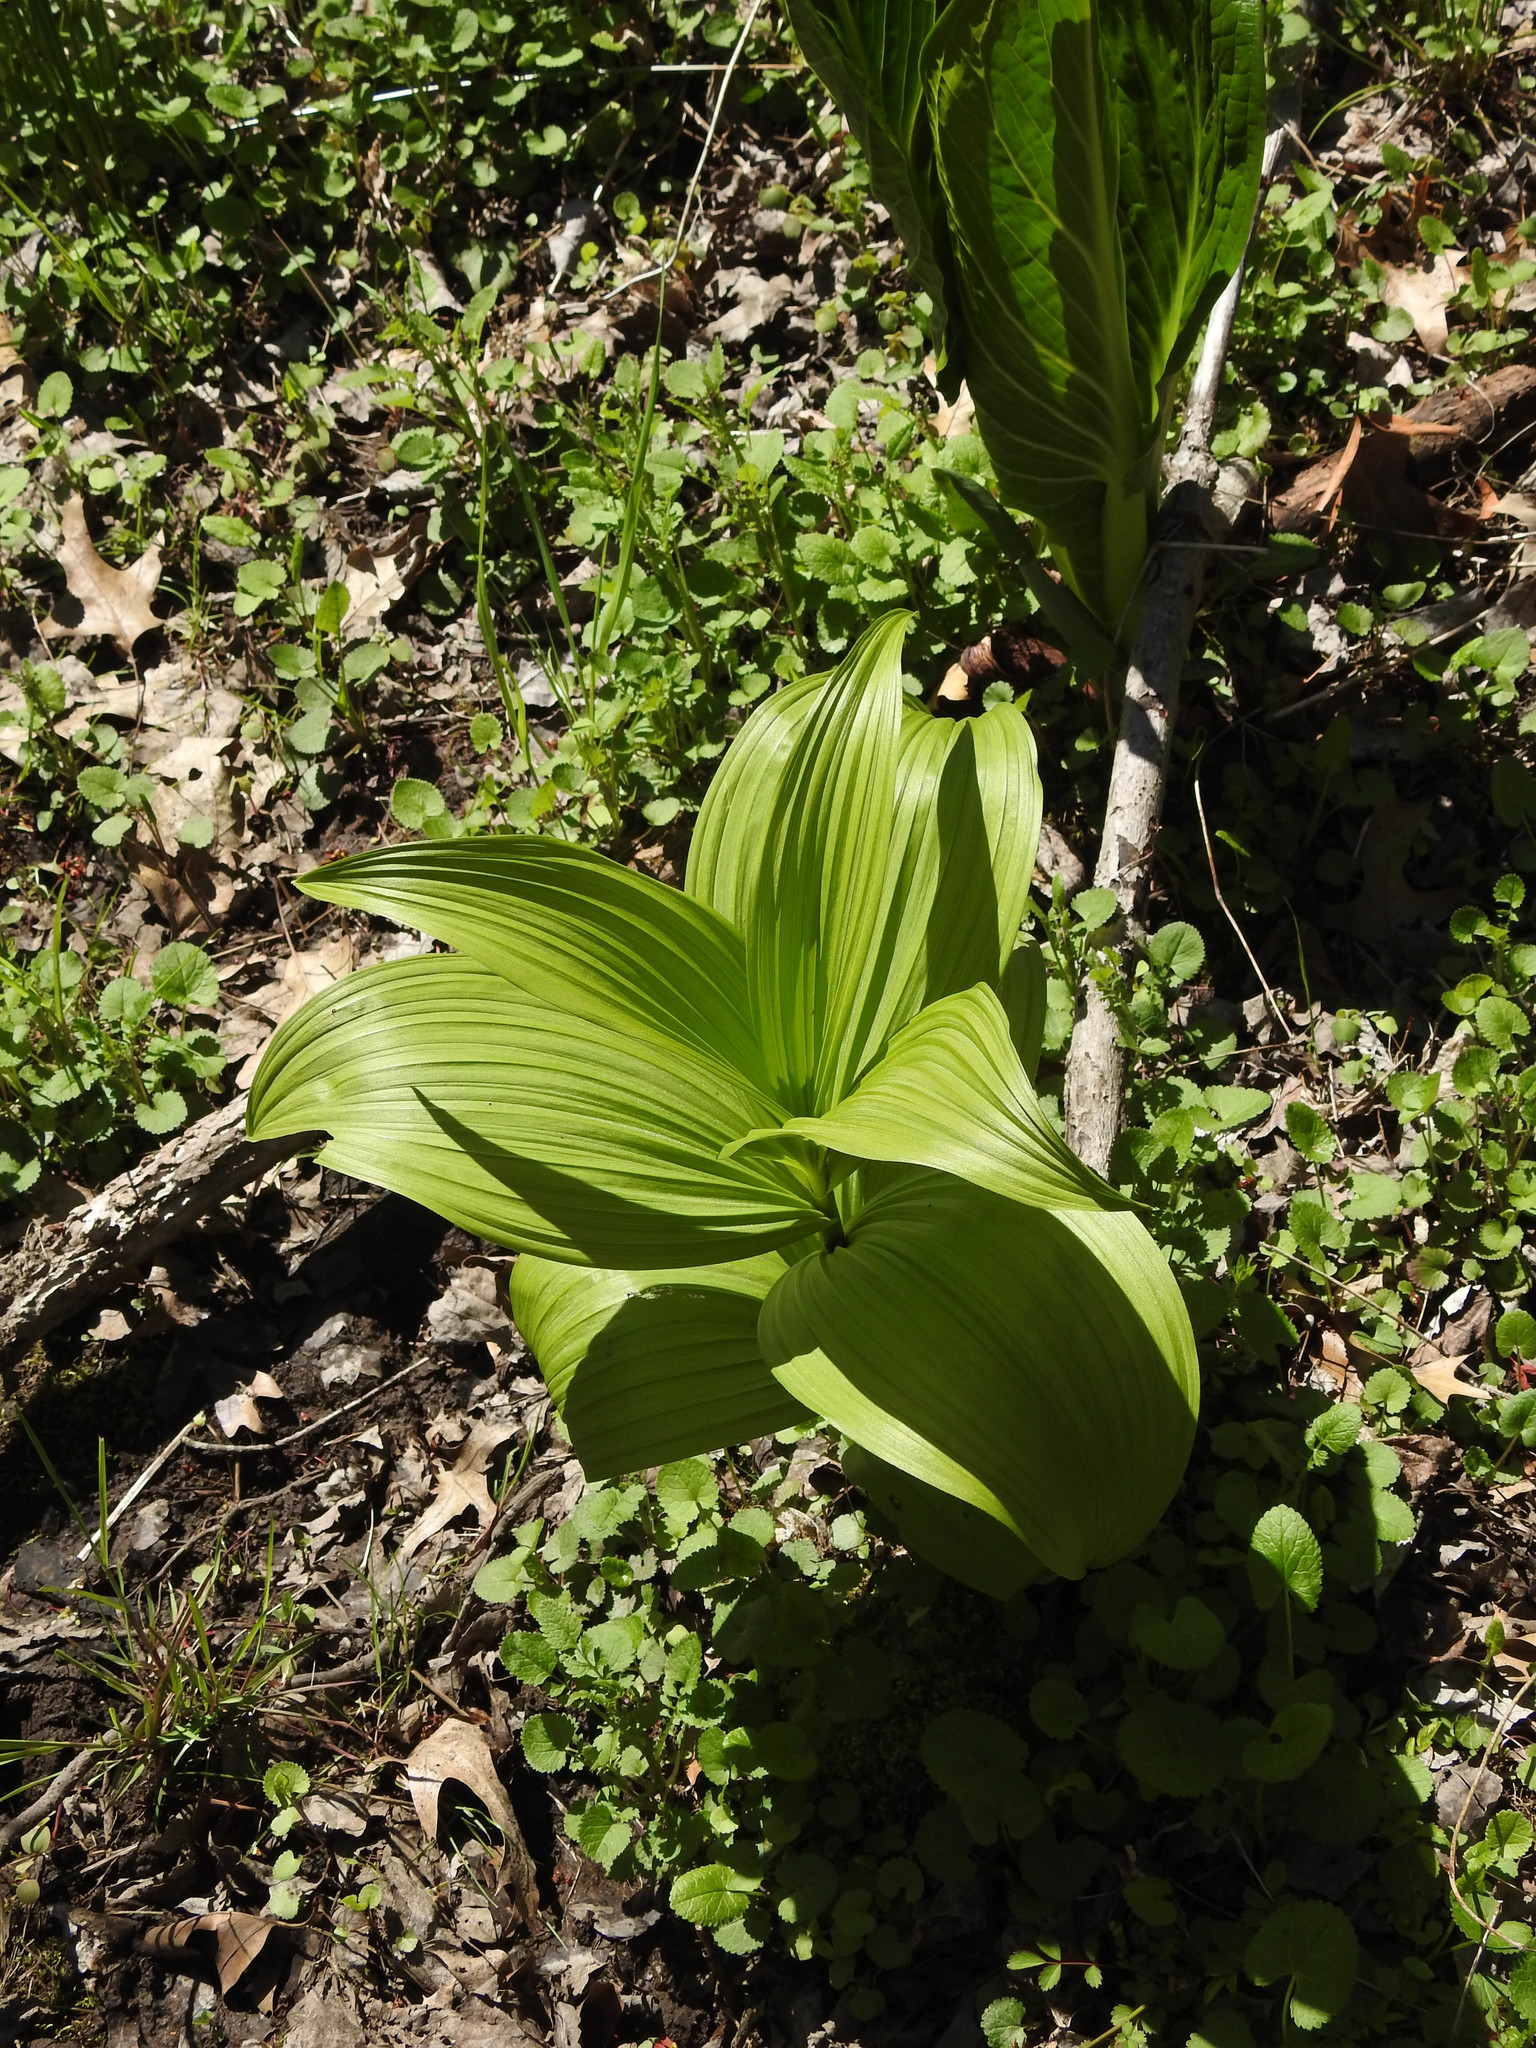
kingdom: Plantae
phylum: Tracheophyta
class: Liliopsida
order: Liliales
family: Melanthiaceae
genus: Veratrum
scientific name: Veratrum viride
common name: American false hellebore
